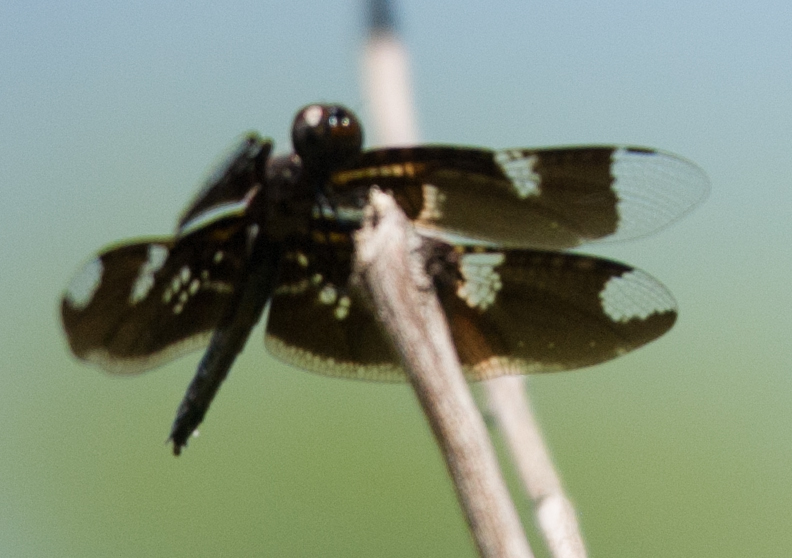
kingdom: Animalia
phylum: Arthropoda
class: Insecta
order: Odonata
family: Libellulidae
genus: Rhyothemis
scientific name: Rhyothemis fenestrina
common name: Skylight flutterer
